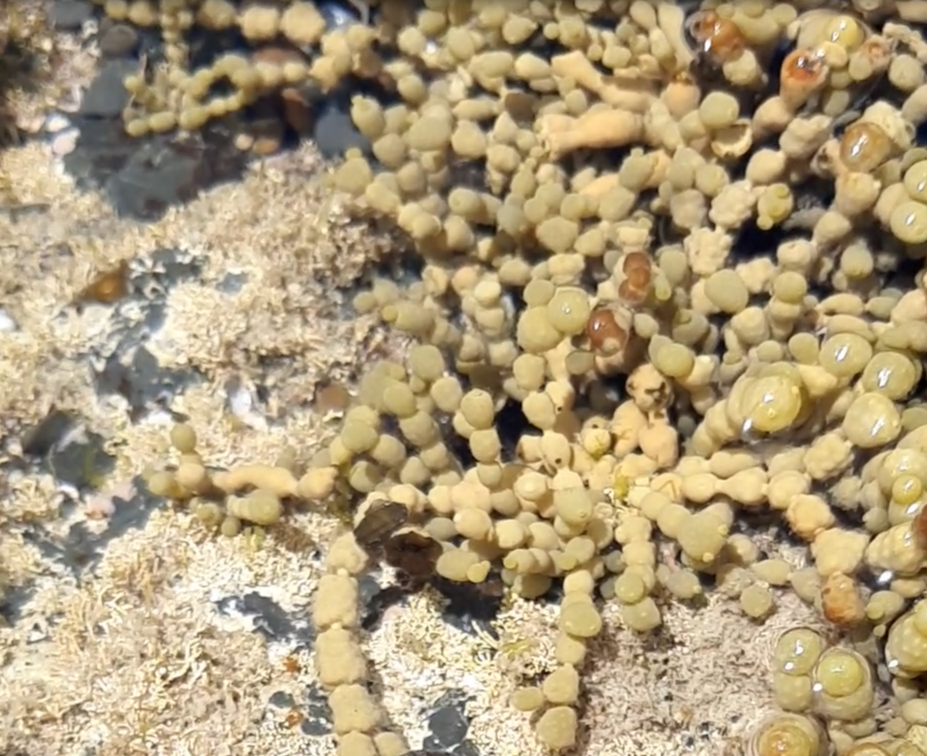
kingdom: Chromista
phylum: Ochrophyta
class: Phaeophyceae
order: Fucales
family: Hormosiraceae
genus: Hormosira
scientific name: Hormosira banksii
